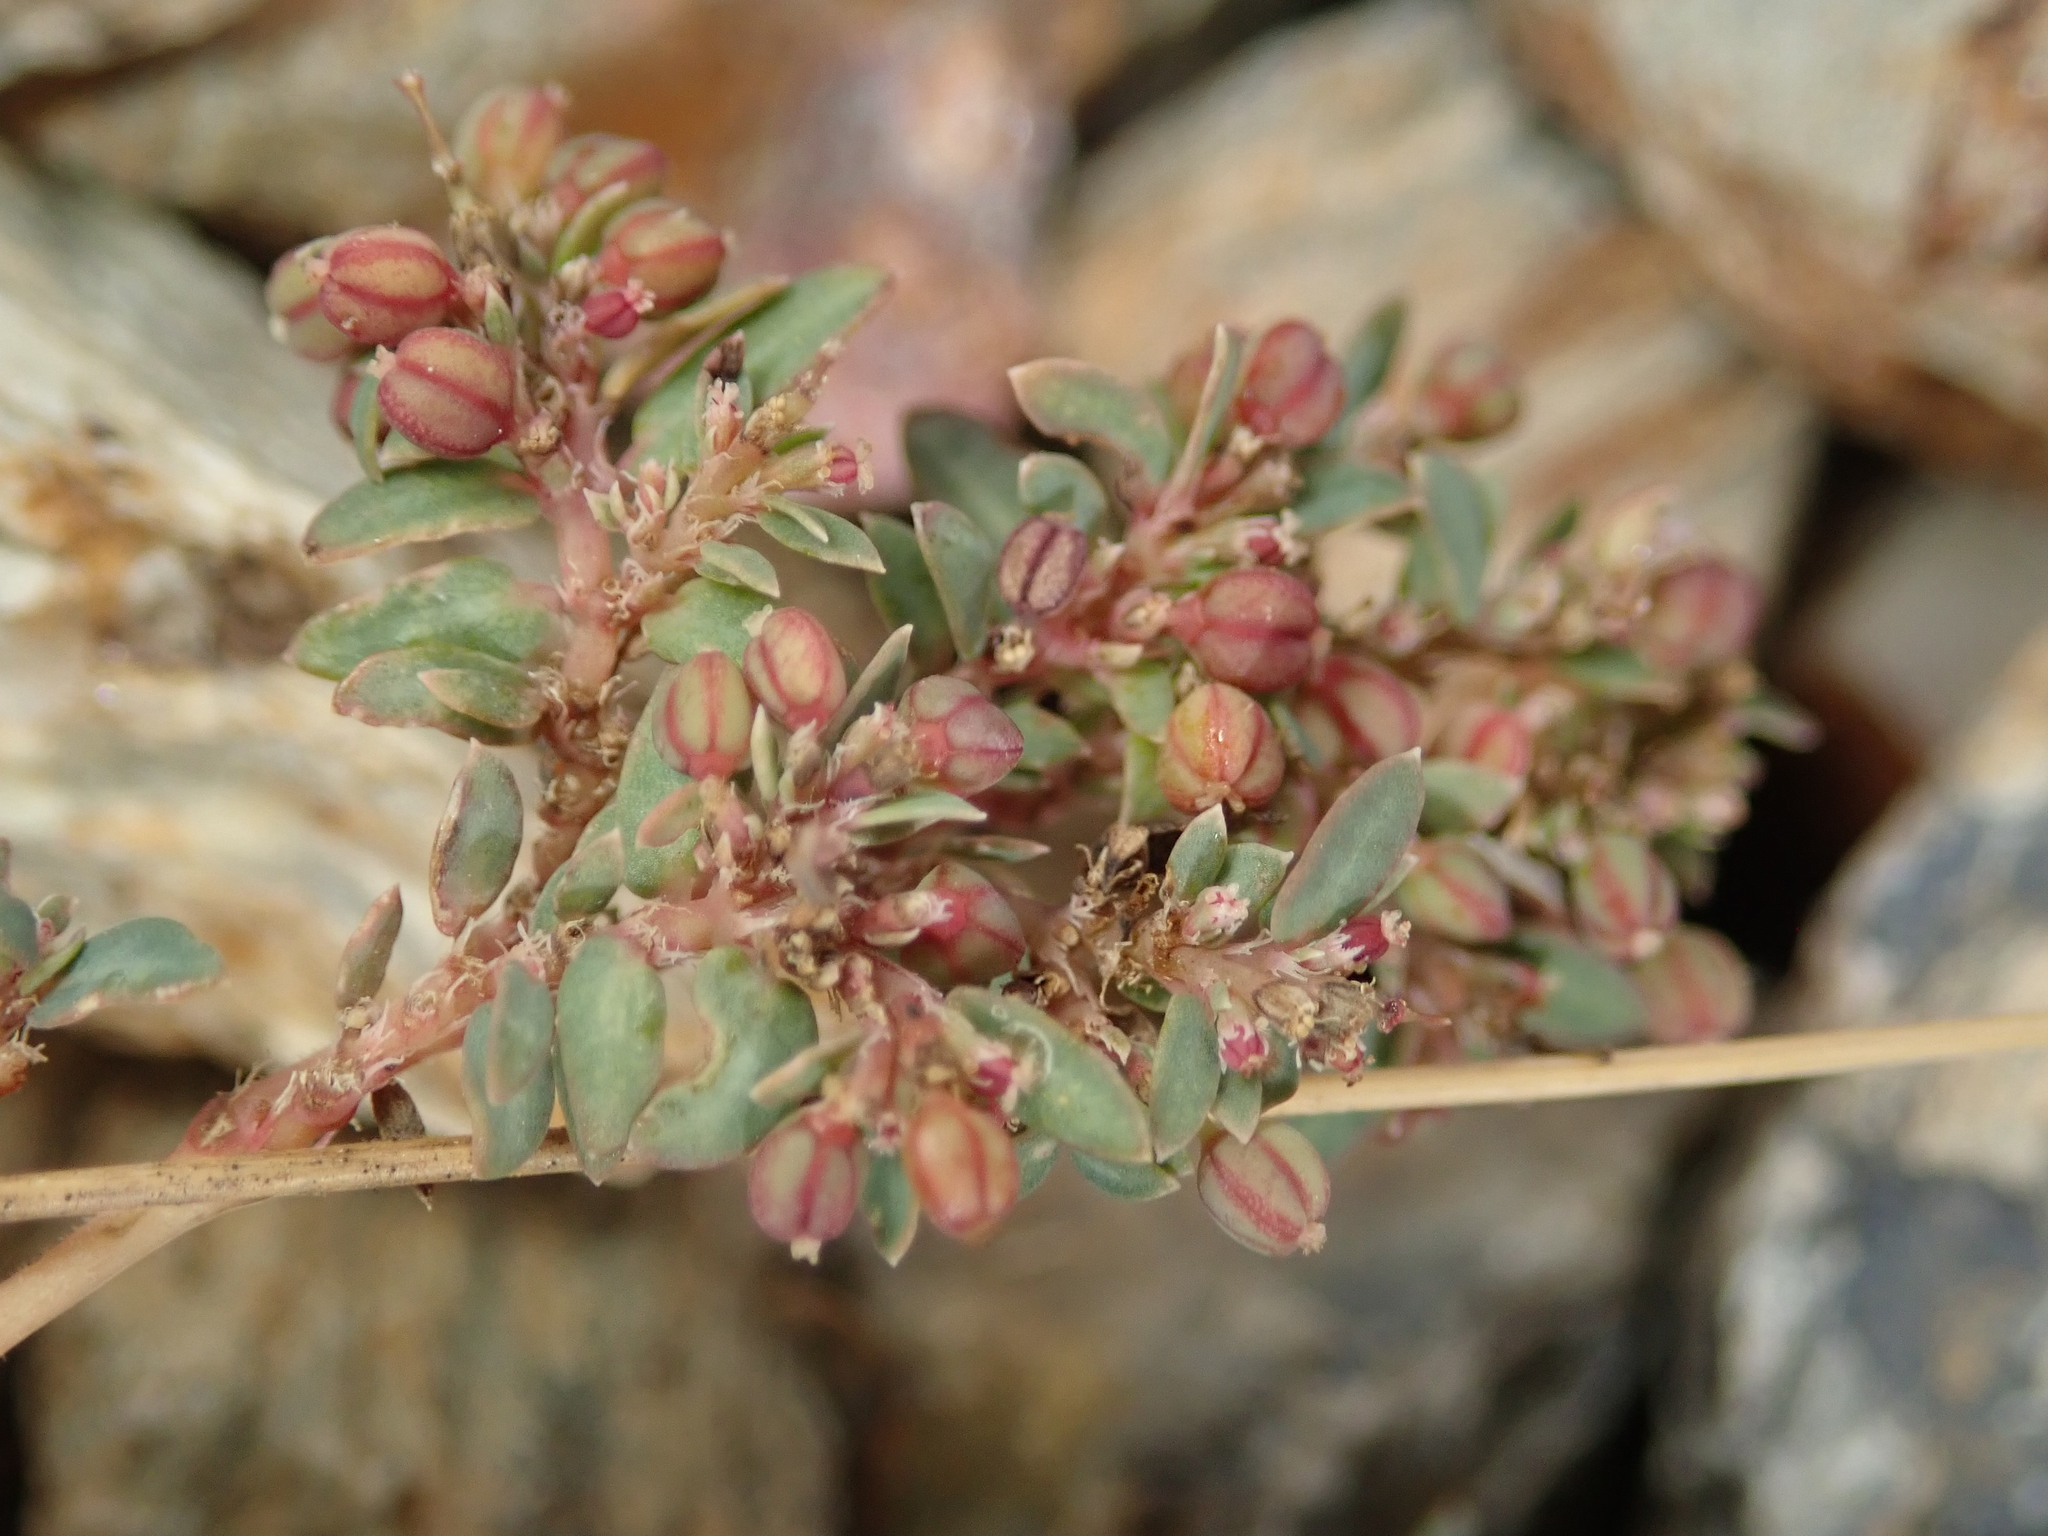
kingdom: Plantae
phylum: Tracheophyta
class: Magnoliopsida
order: Malpighiales
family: Euphorbiaceae
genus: Euphorbia
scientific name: Euphorbia abramsiana
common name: Abram's spurge
